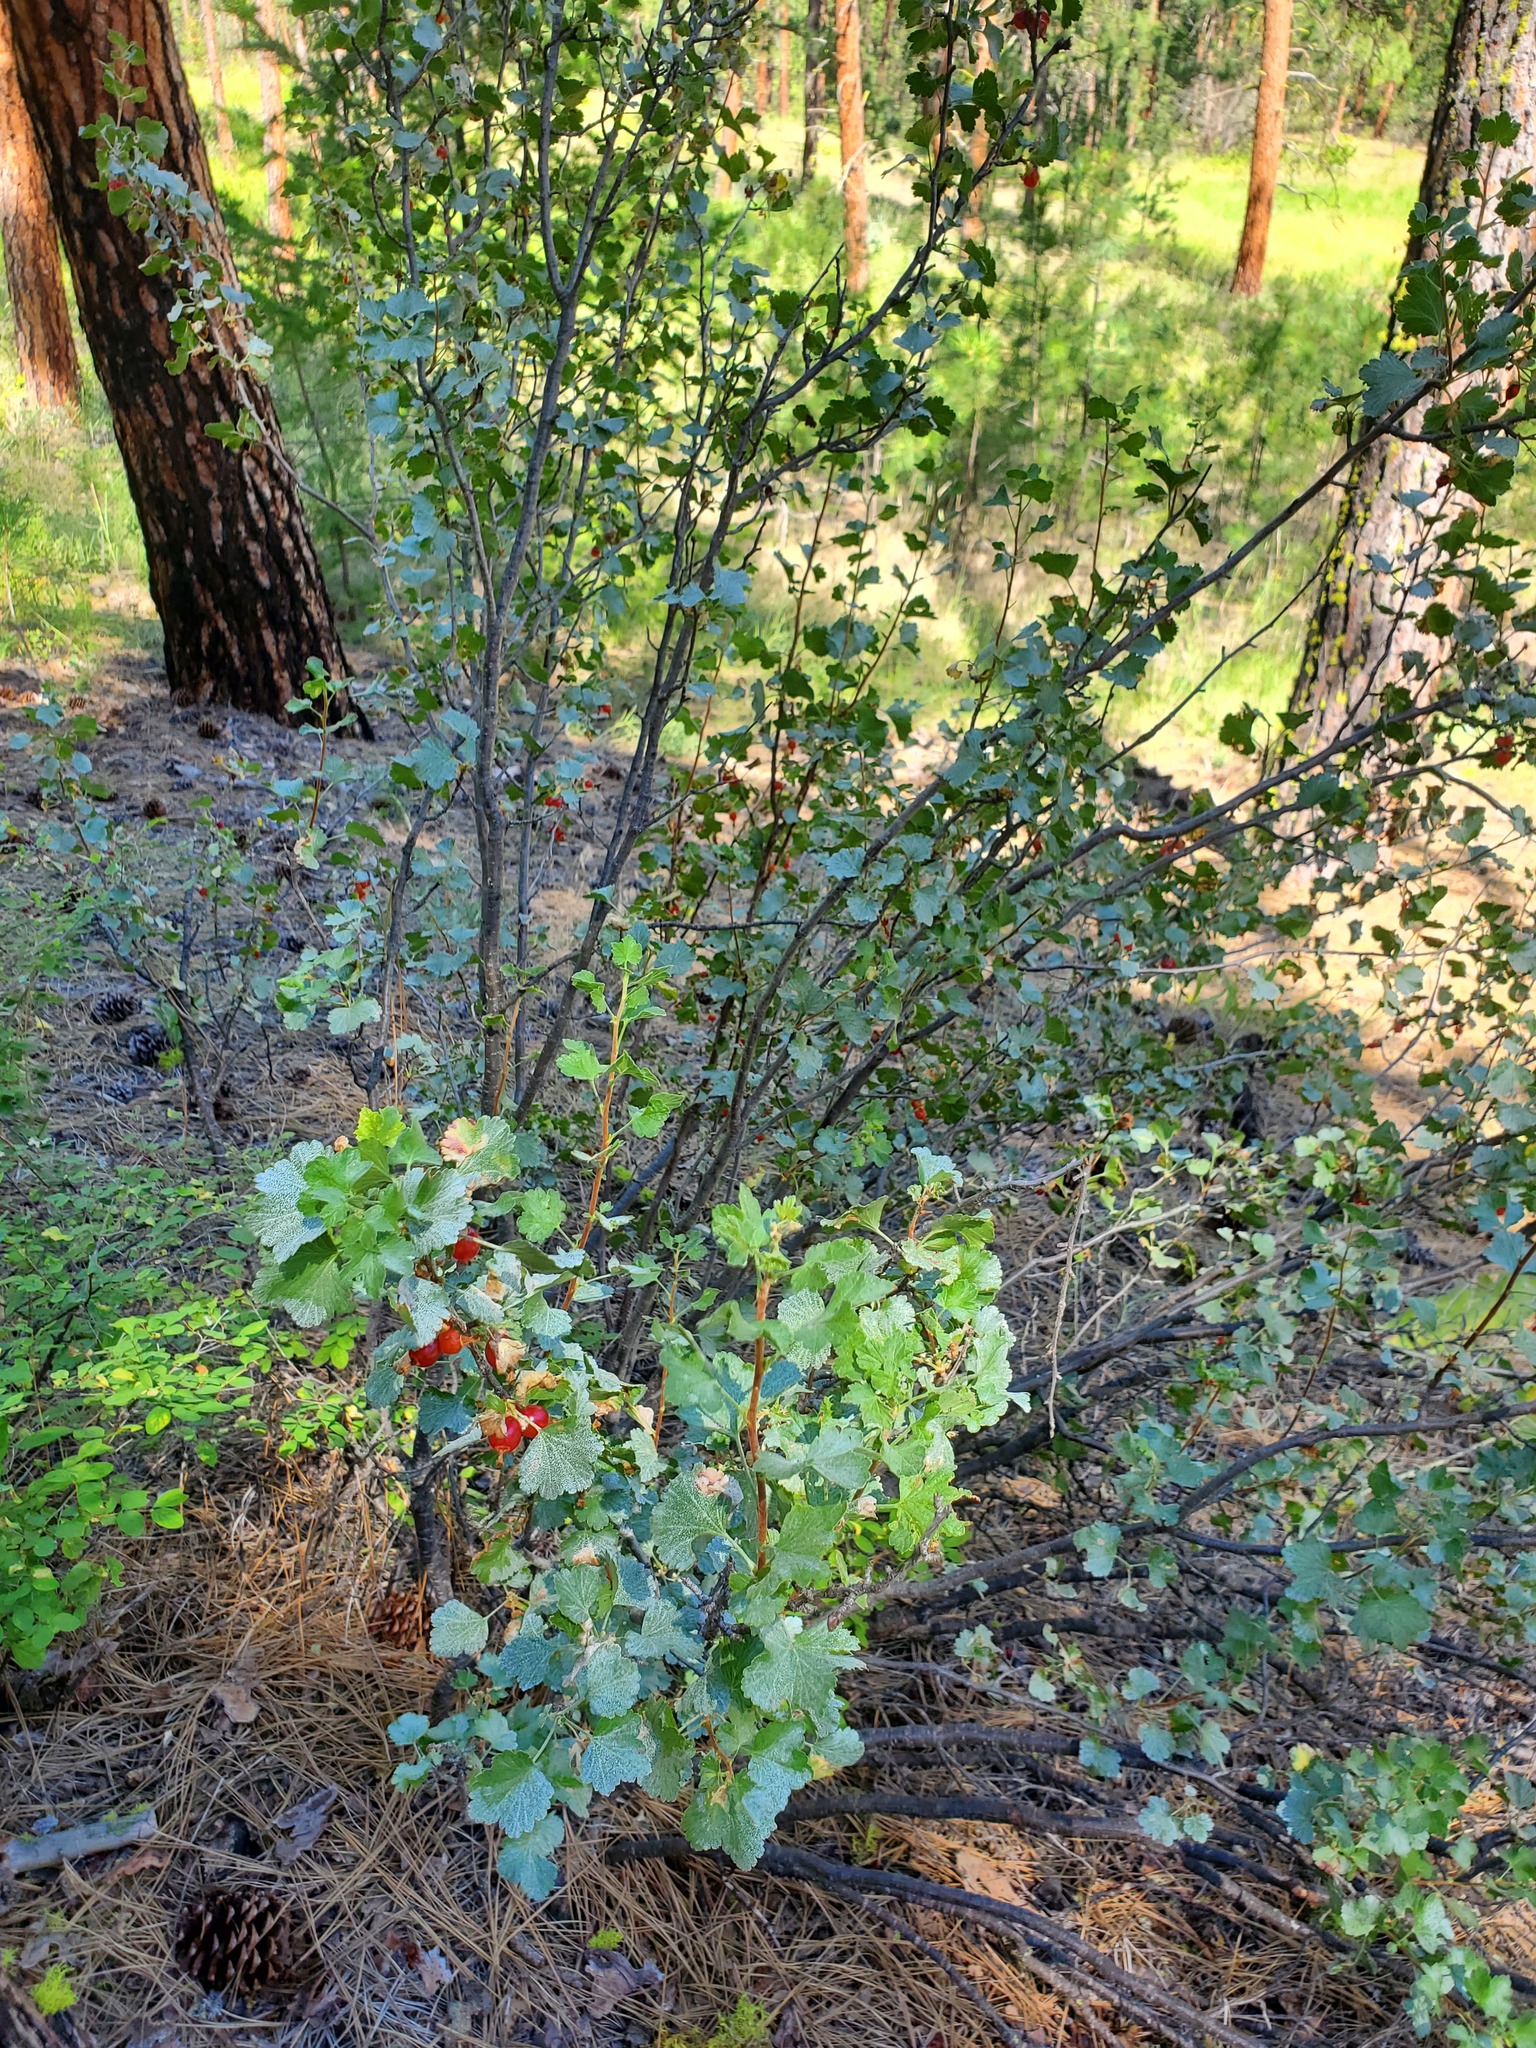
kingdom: Plantae
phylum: Tracheophyta
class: Magnoliopsida
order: Saxifragales
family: Grossulariaceae
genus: Ribes
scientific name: Ribes cereum
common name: Wax currant
